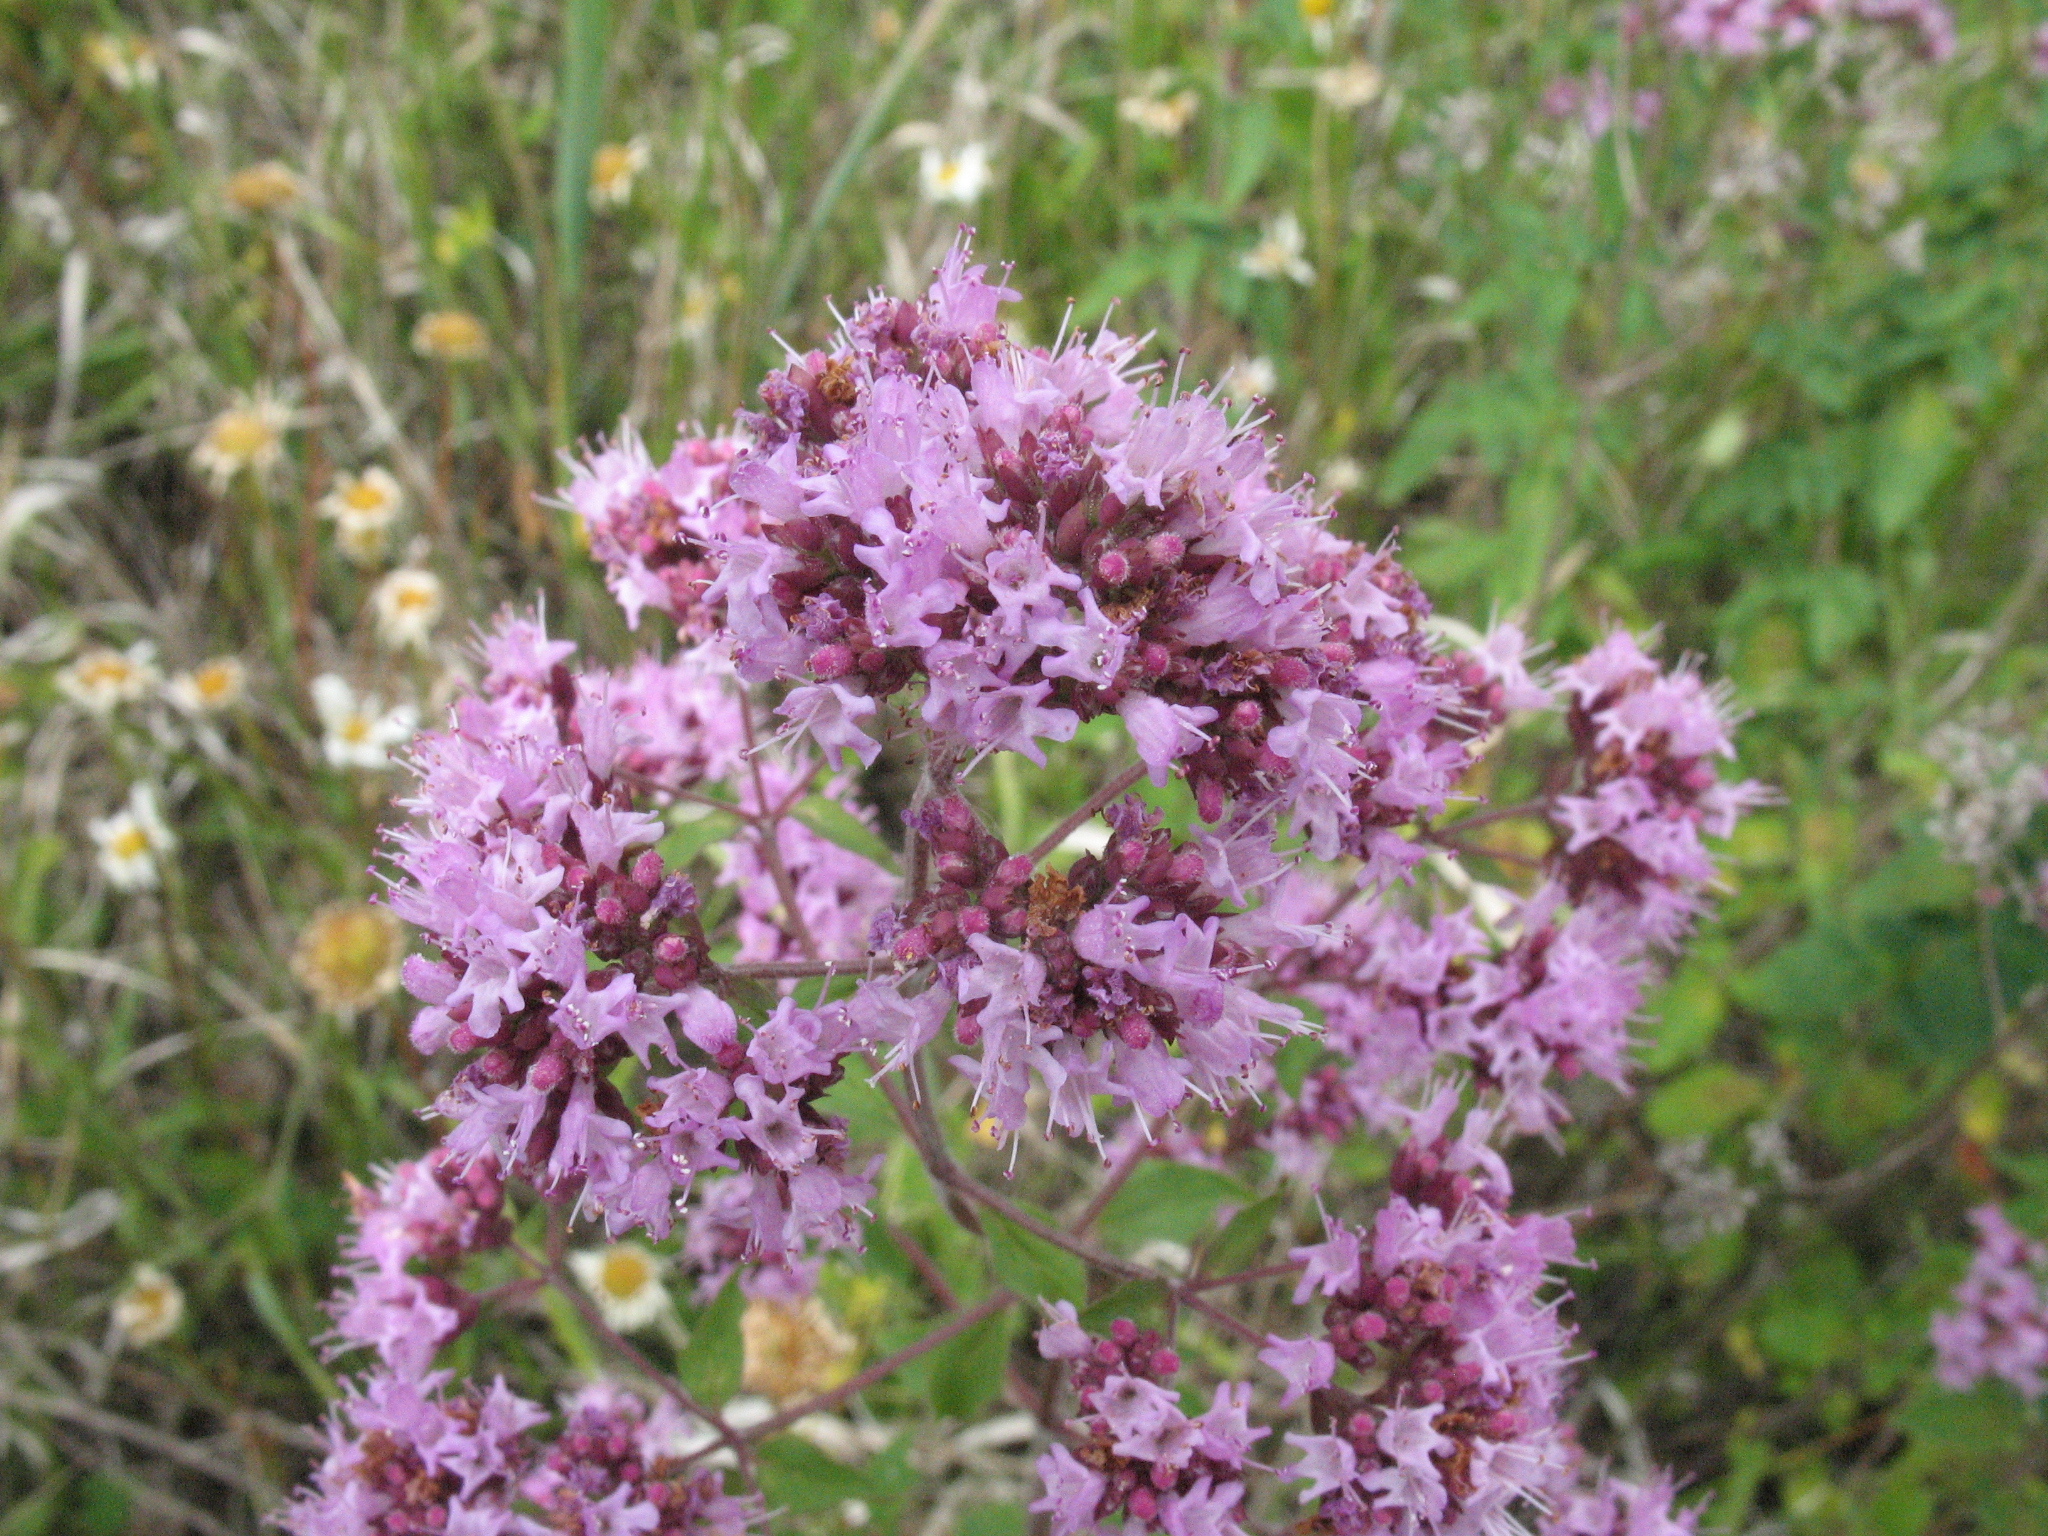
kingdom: Plantae
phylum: Tracheophyta
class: Magnoliopsida
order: Lamiales
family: Lamiaceae
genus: Origanum
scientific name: Origanum vulgare
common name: Wild marjoram
